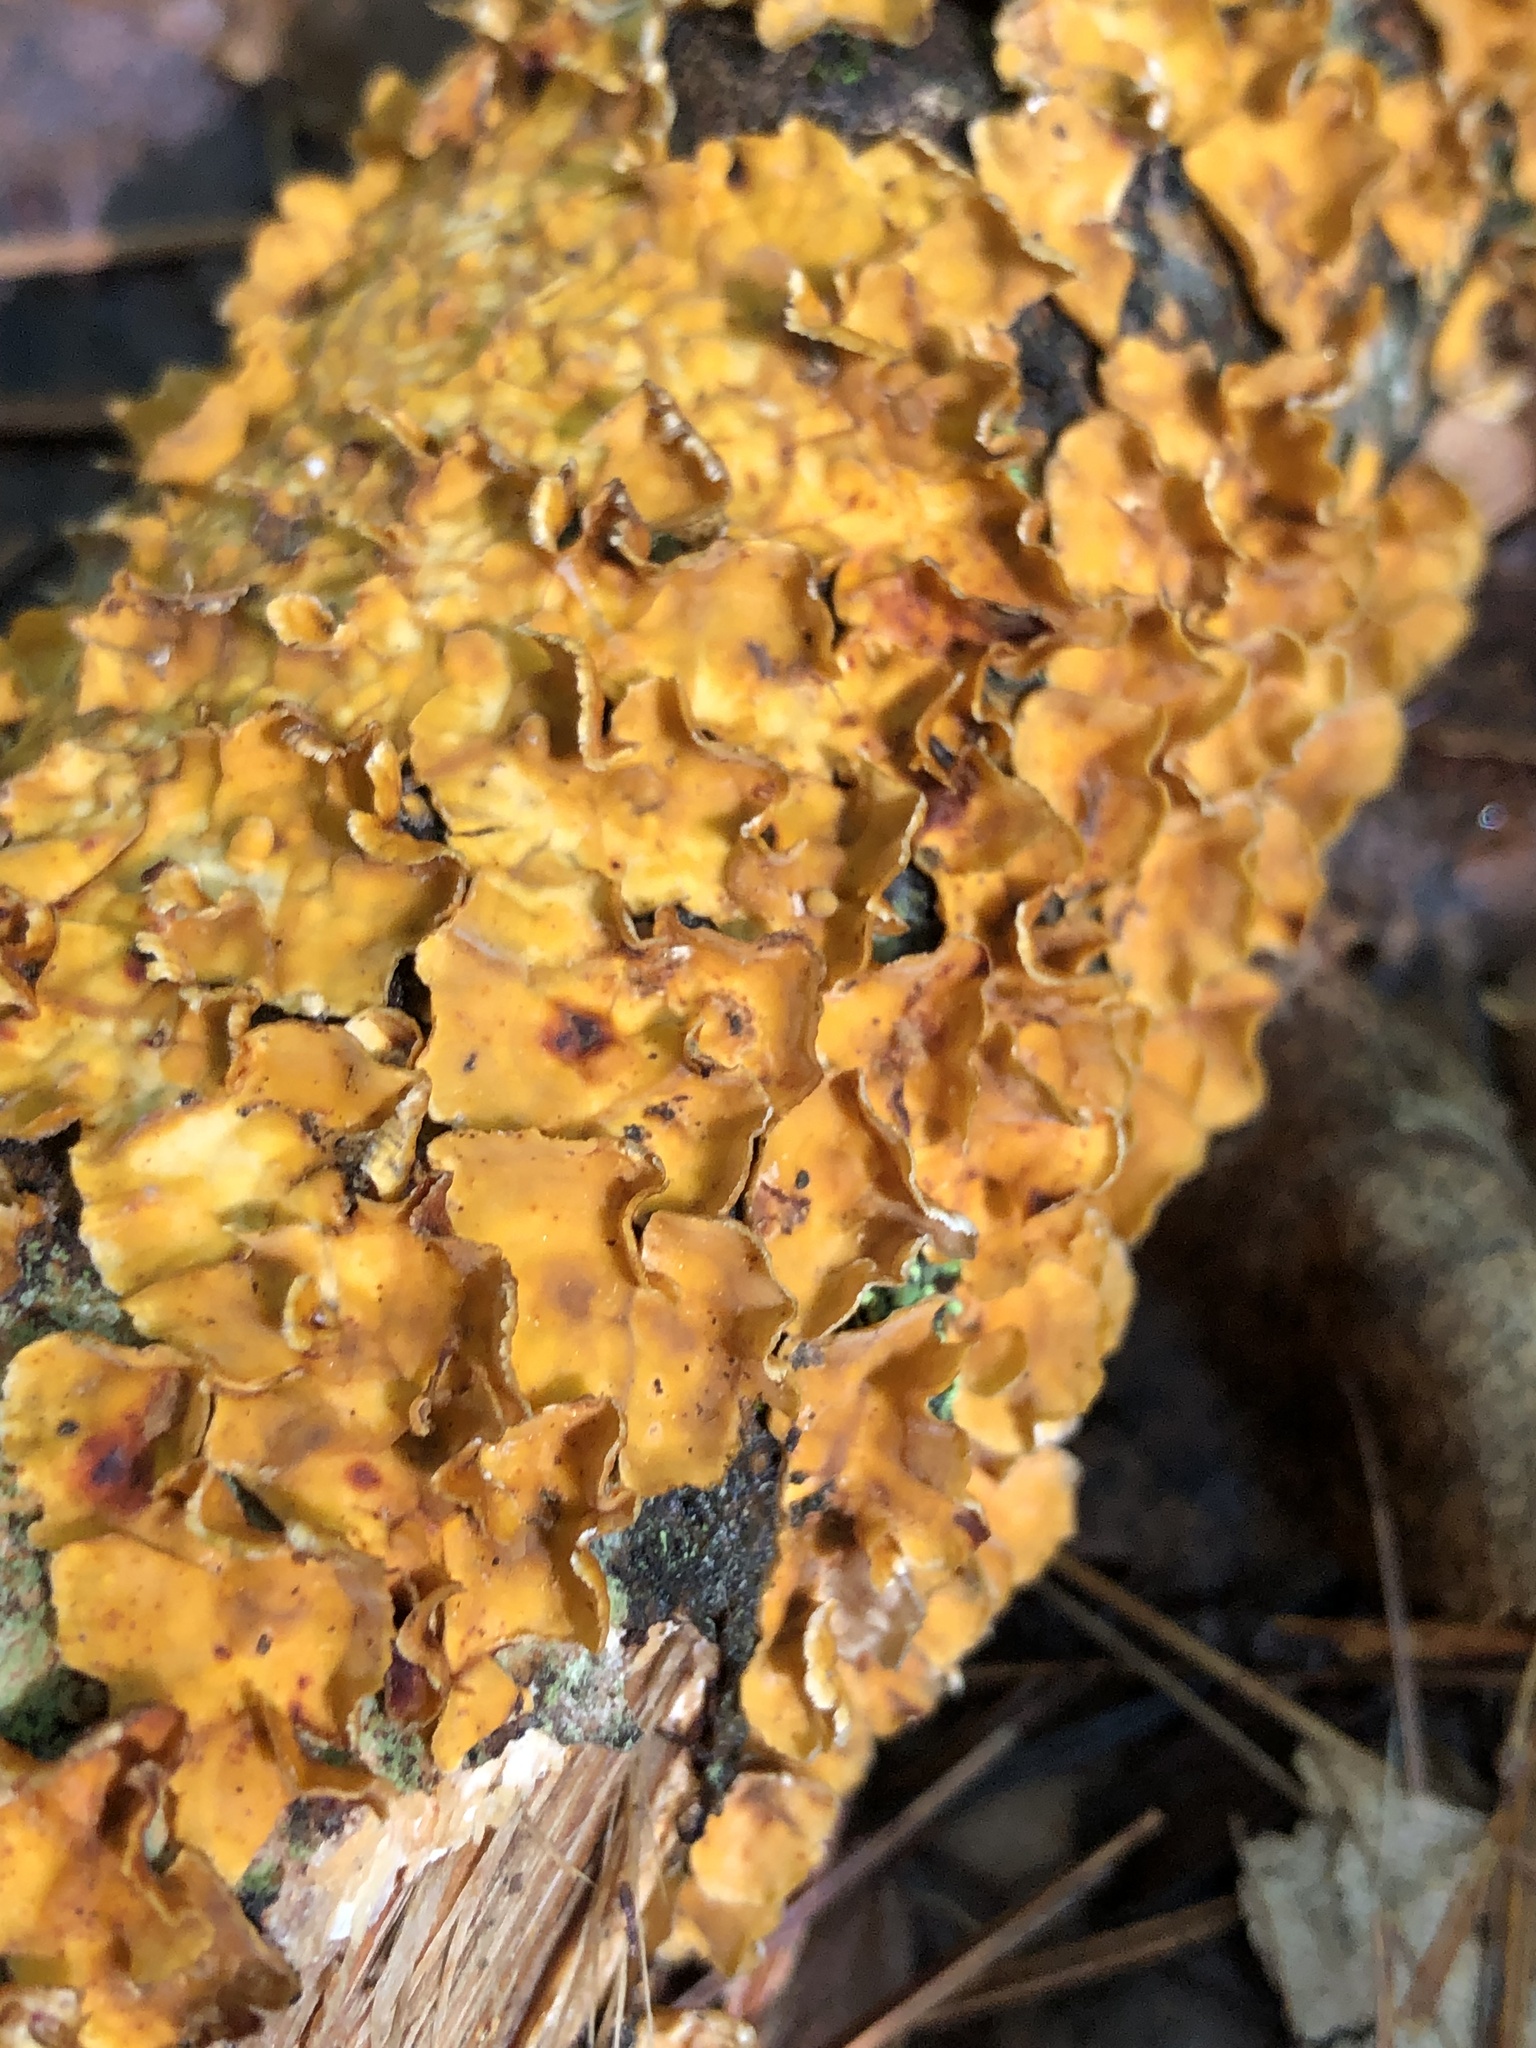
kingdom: Fungi
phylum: Basidiomycota
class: Agaricomycetes
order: Russulales
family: Stereaceae
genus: Stereum
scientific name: Stereum complicatum
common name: Crowded parchment
